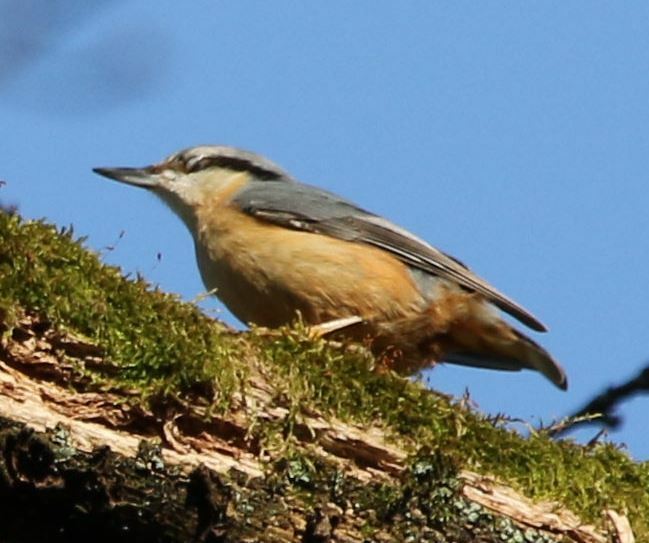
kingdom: Animalia
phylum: Chordata
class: Aves
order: Passeriformes
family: Sittidae
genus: Sitta
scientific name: Sitta europaea
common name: Eurasian nuthatch
